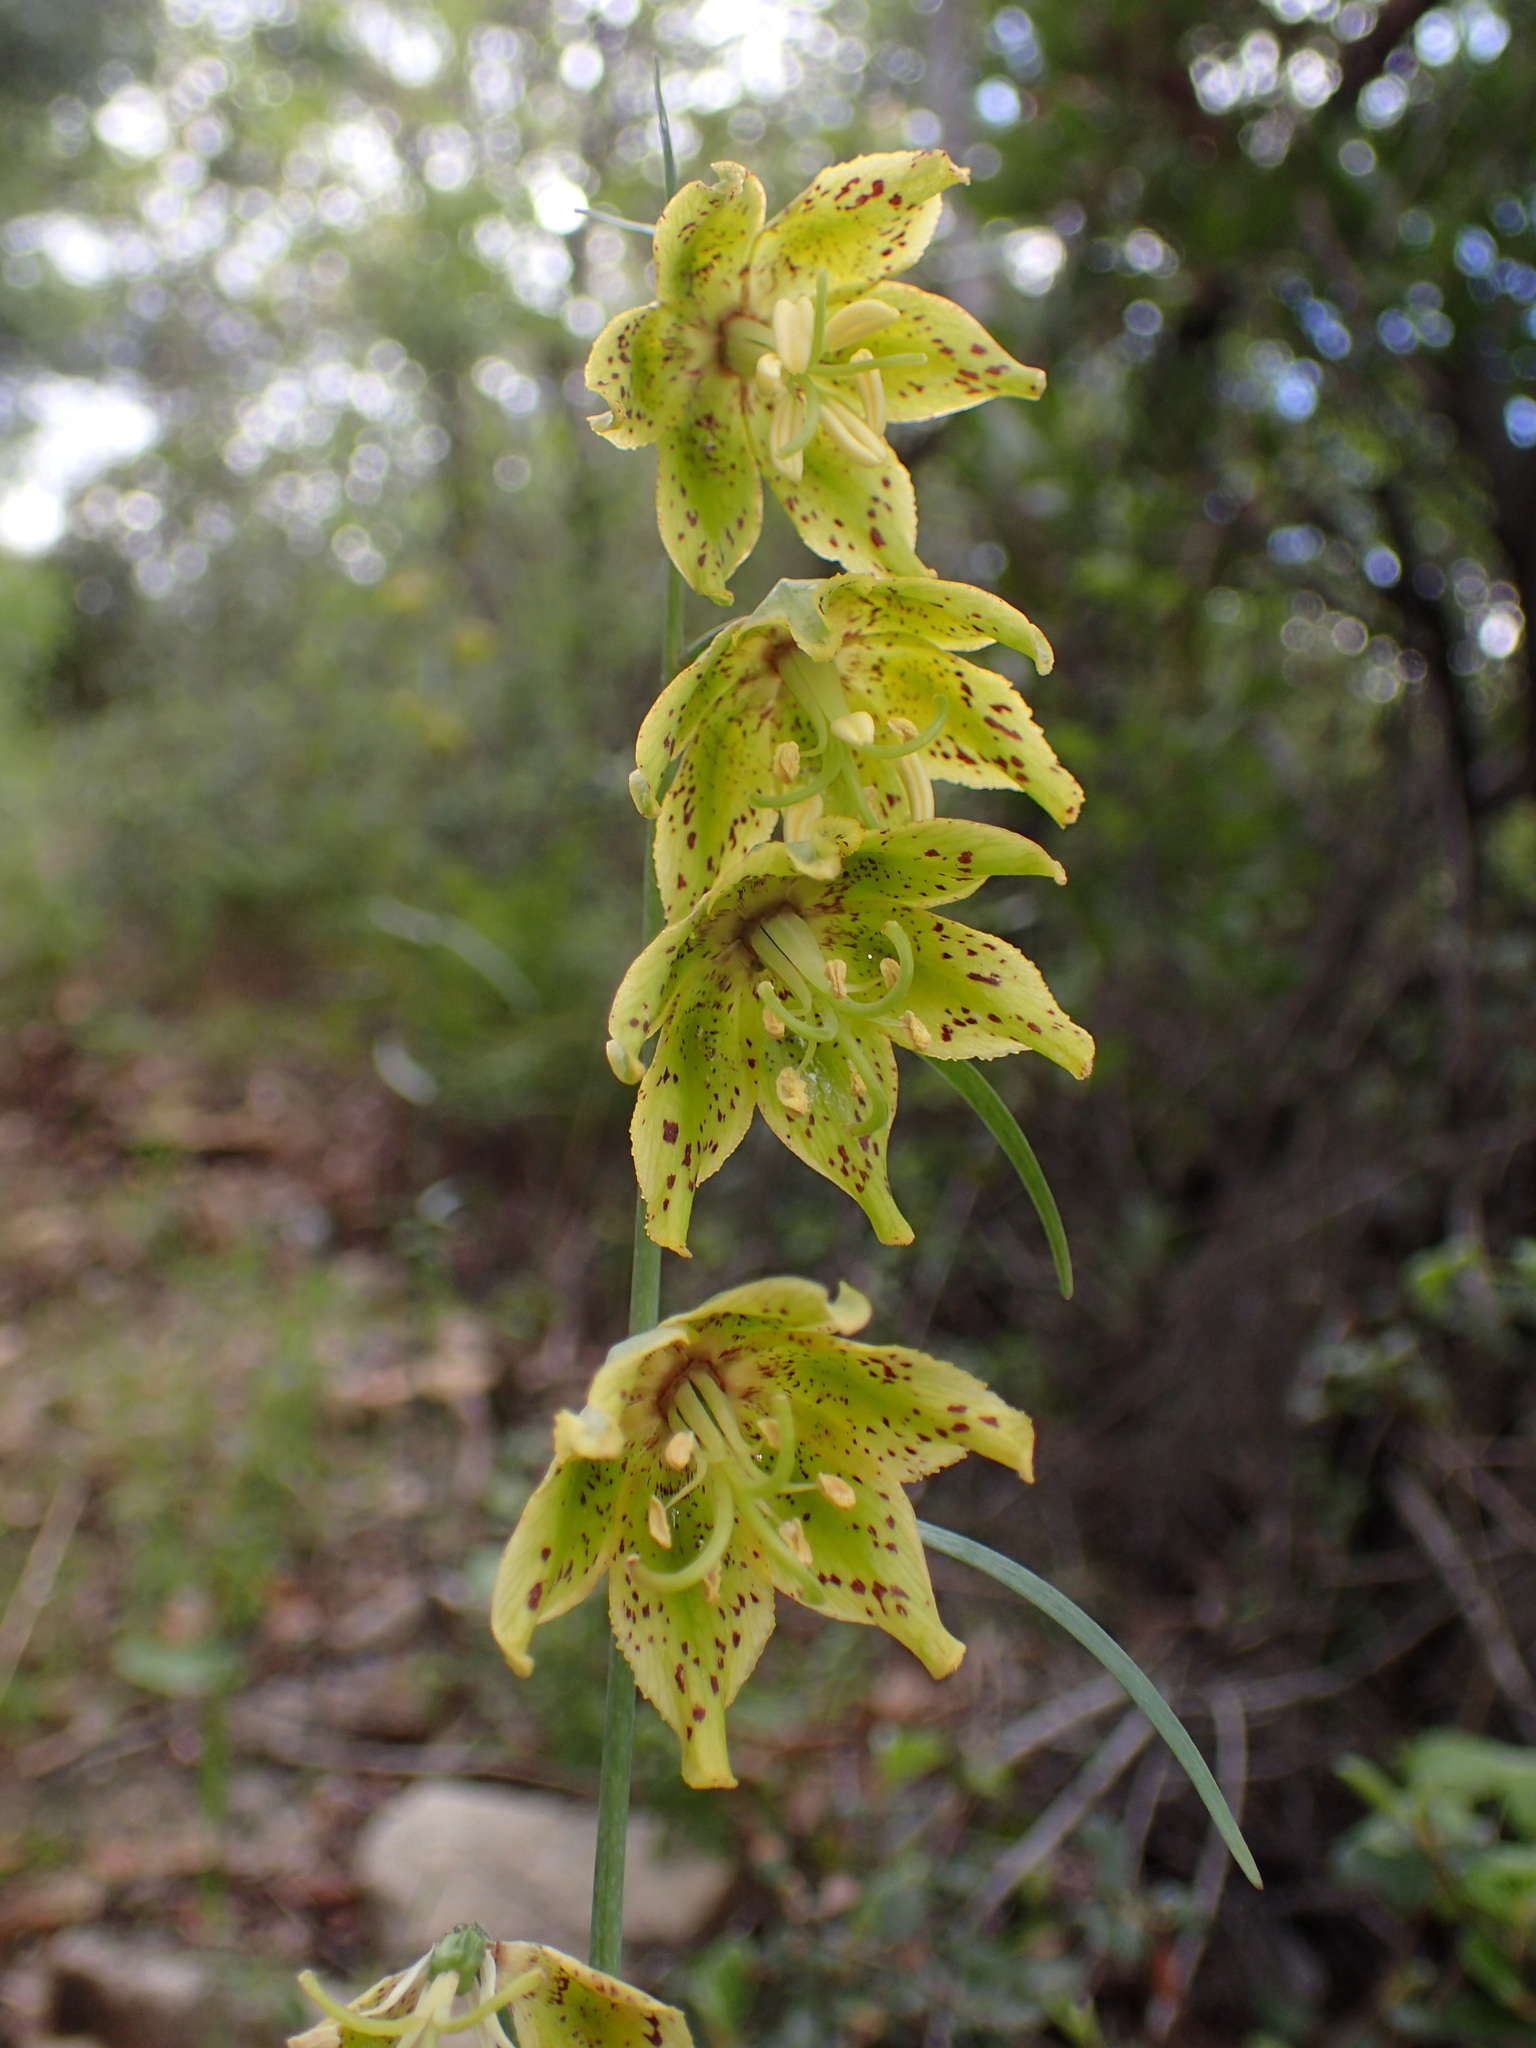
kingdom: Plantae
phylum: Tracheophyta
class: Liliopsida
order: Liliales
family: Liliaceae
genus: Fritillaria
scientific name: Fritillaria ojaiensis
